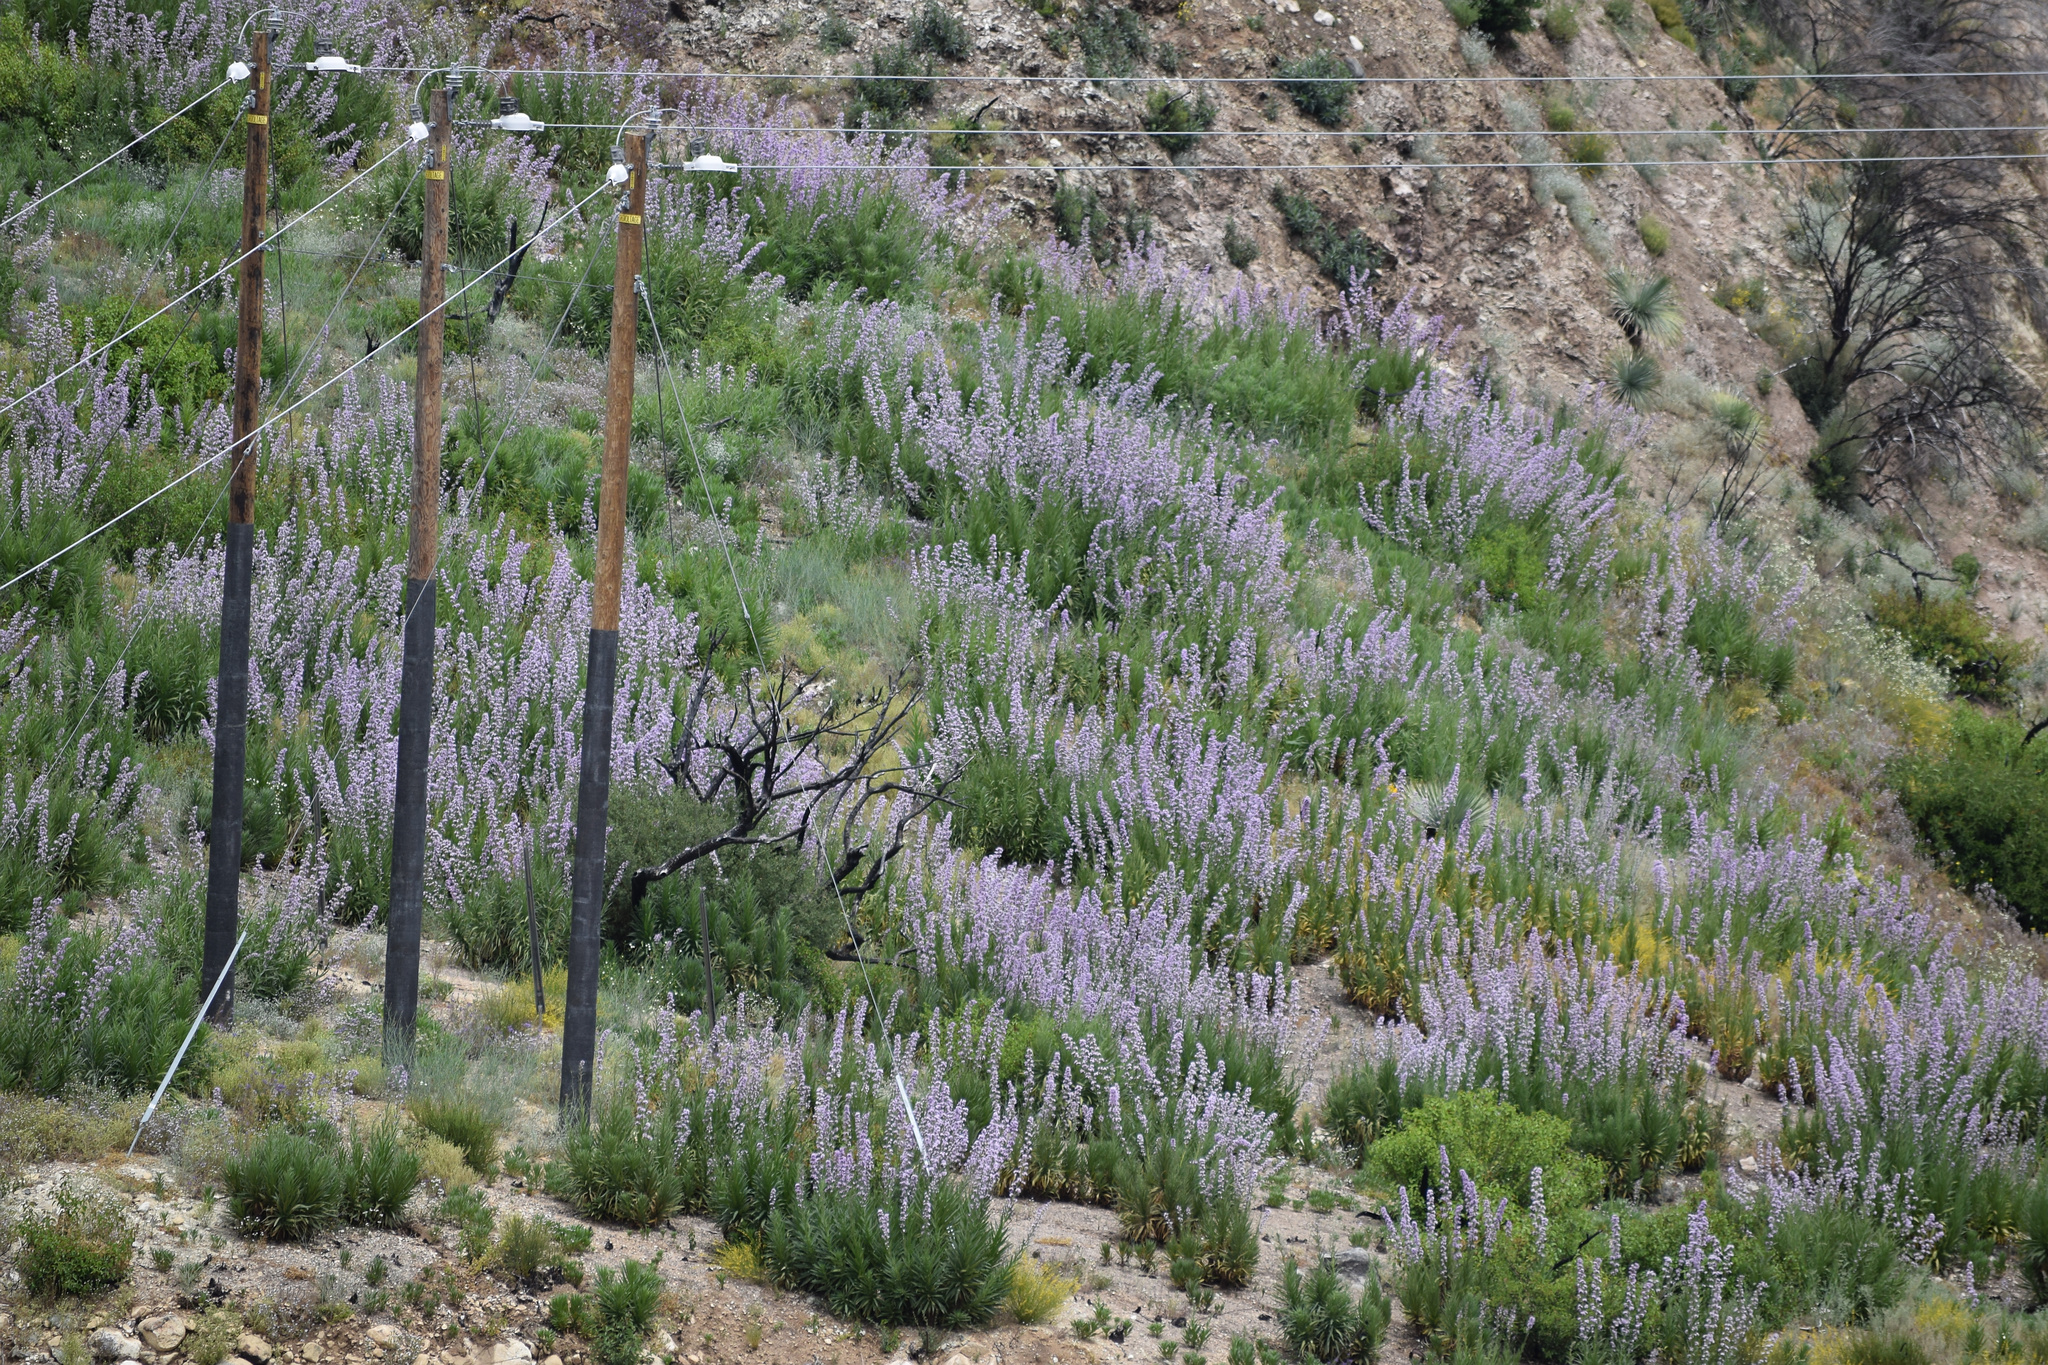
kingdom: Plantae
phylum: Tracheophyta
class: Magnoliopsida
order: Boraginales
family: Namaceae
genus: Turricula
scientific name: Turricula parryi
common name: Poodle-dog-bush
